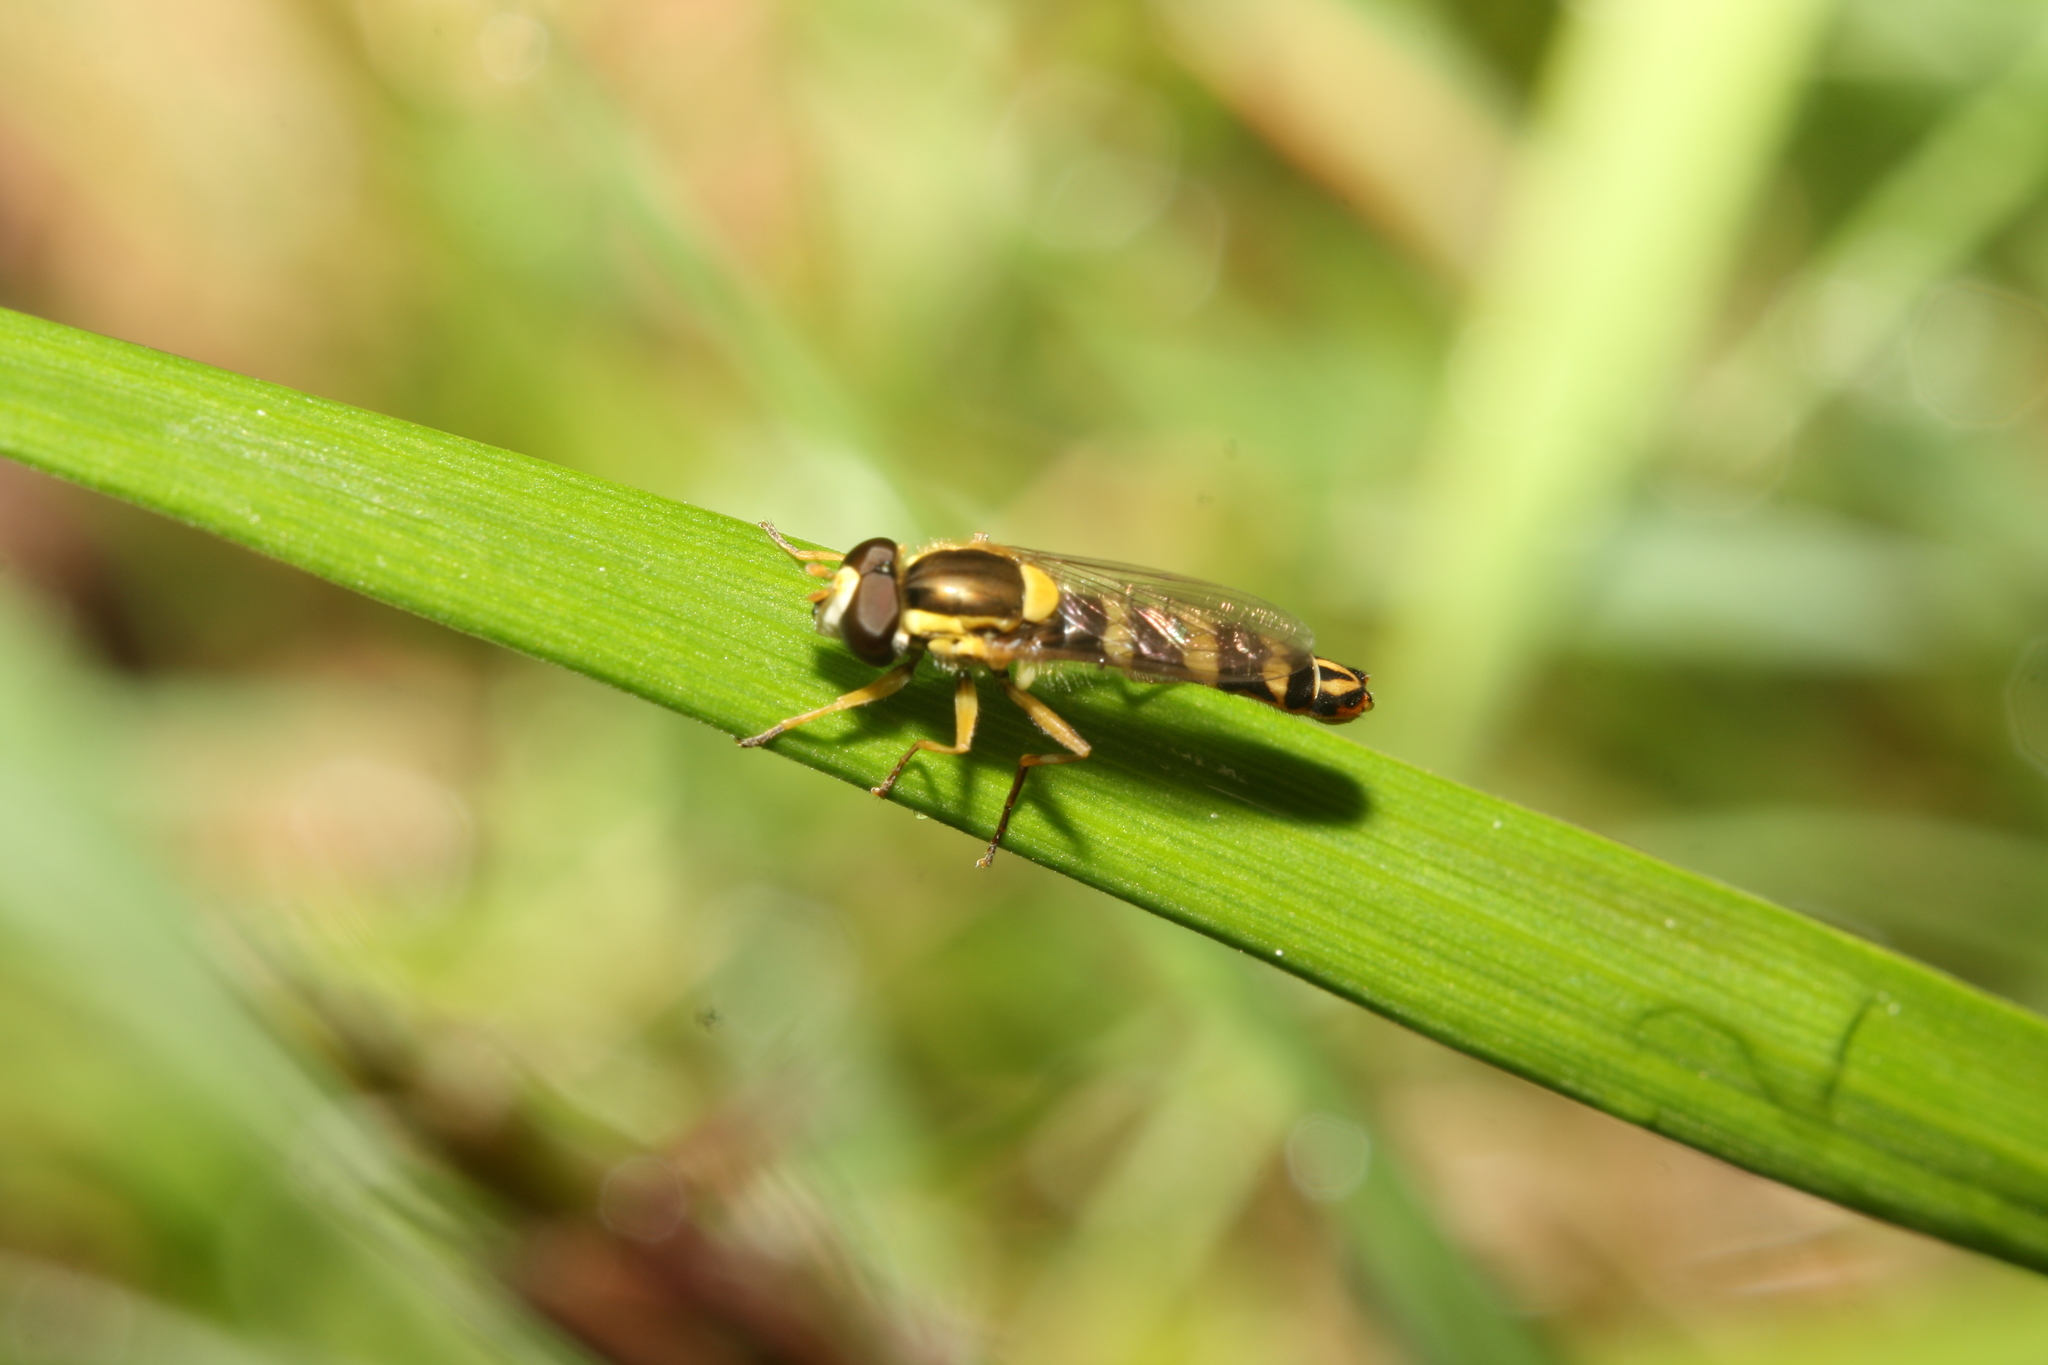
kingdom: Animalia
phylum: Arthropoda
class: Insecta
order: Diptera
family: Syrphidae
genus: Sphaerophoria
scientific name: Sphaerophoria scripta
